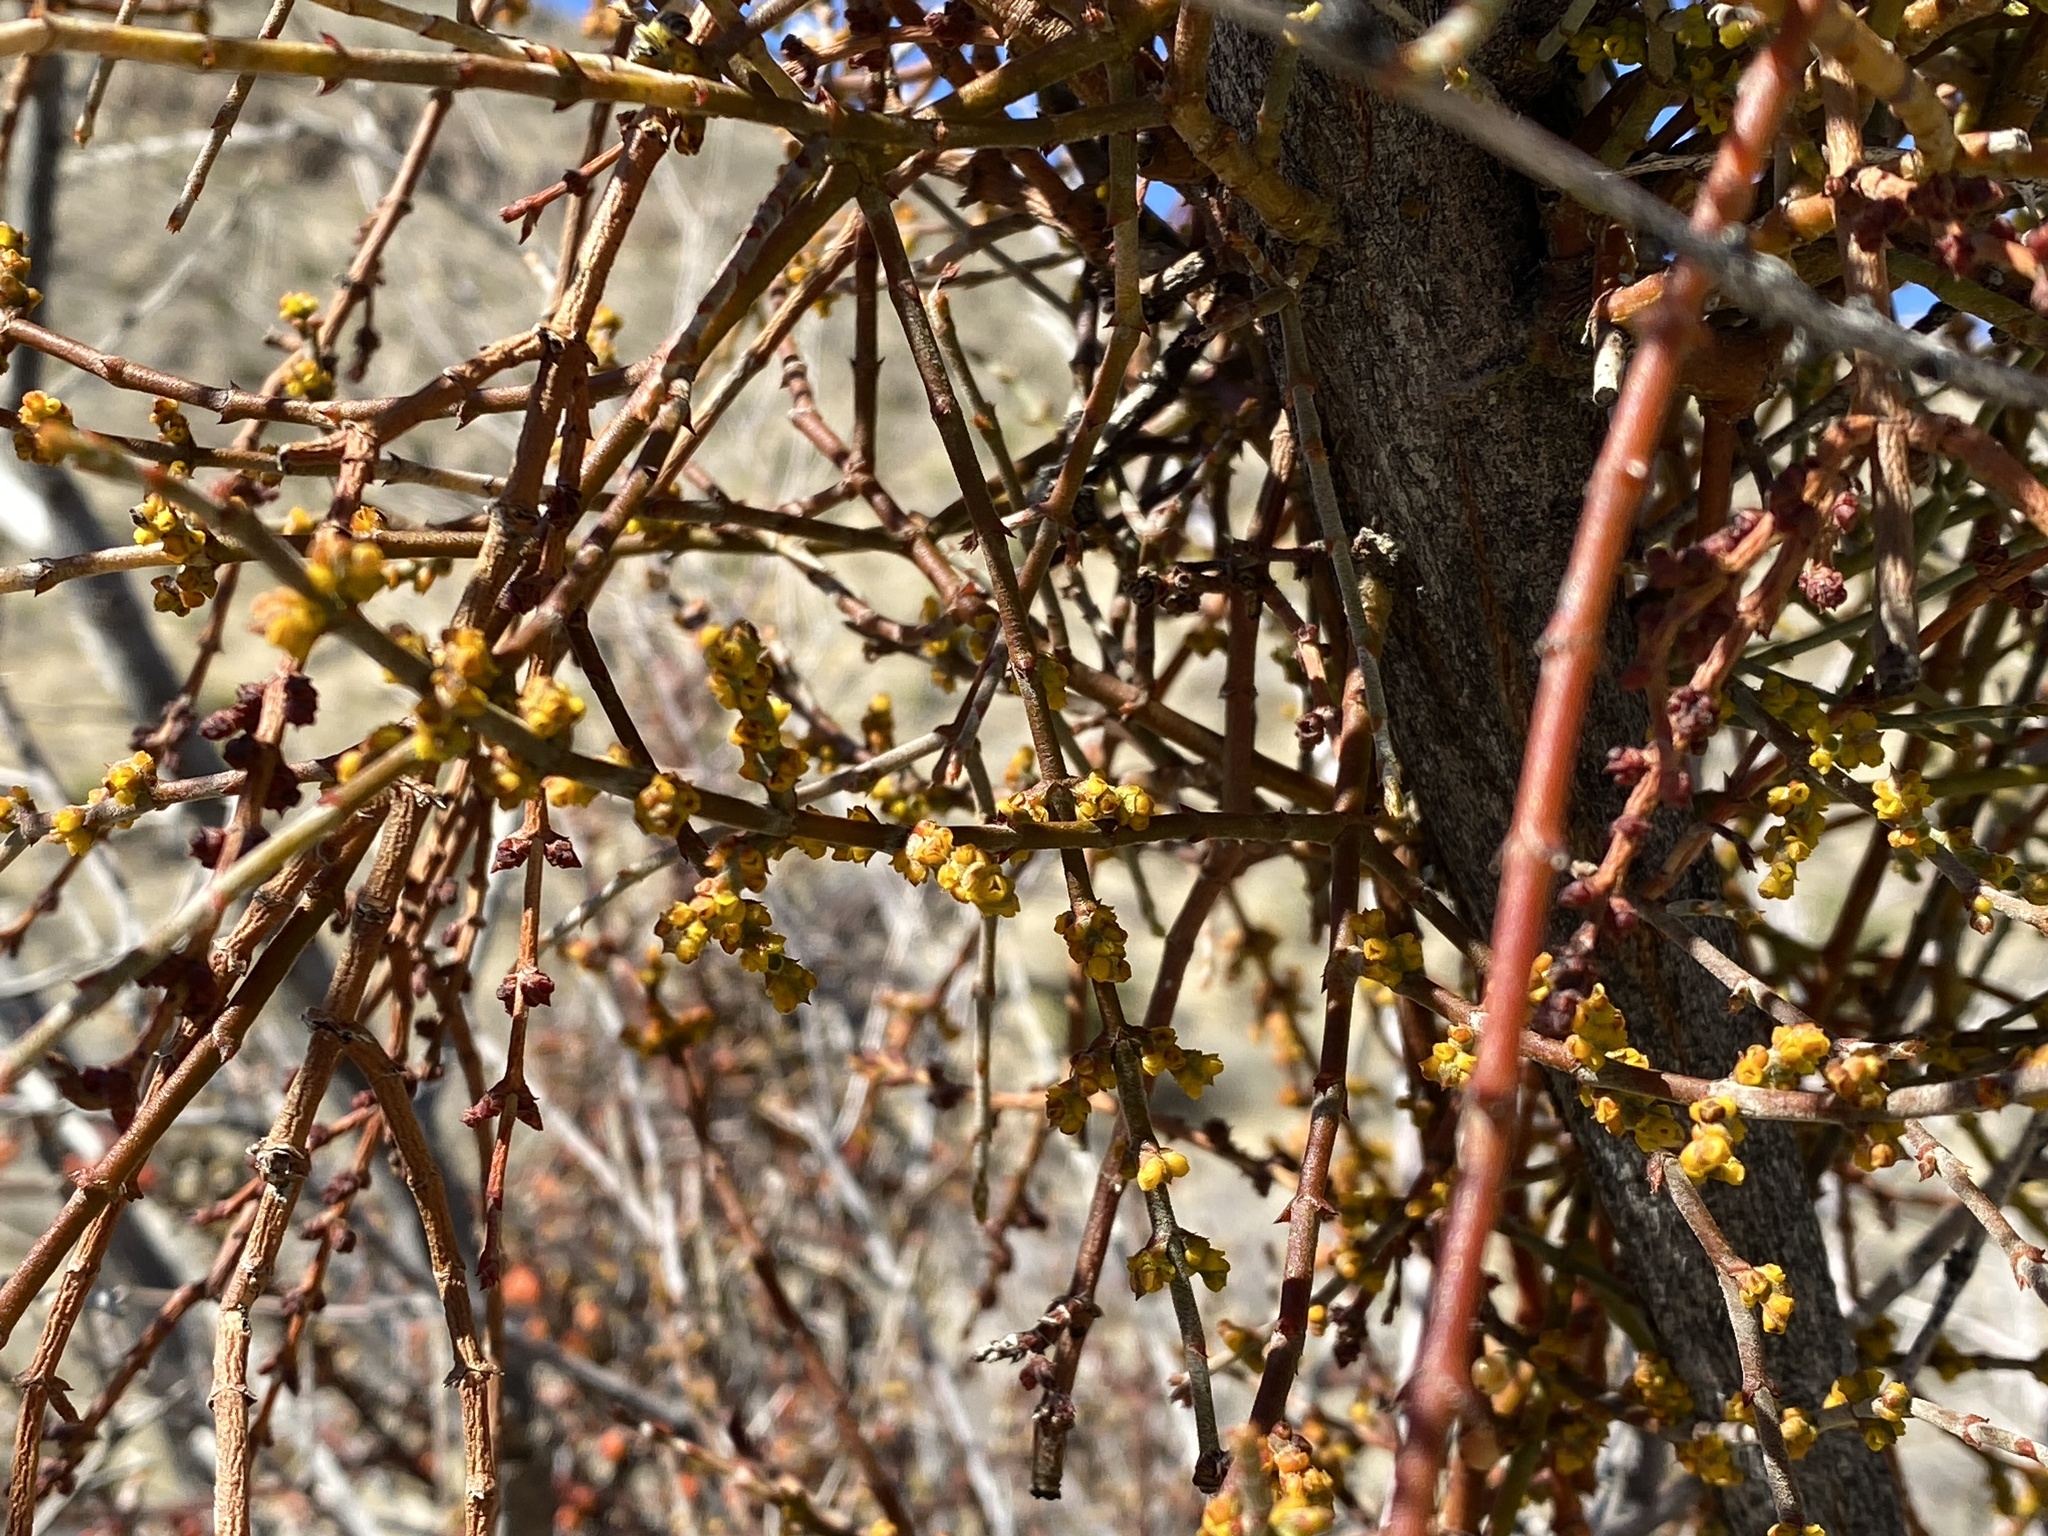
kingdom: Plantae
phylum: Tracheophyta
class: Magnoliopsida
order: Santalales
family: Viscaceae
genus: Phoradendron
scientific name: Phoradendron californicum
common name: Acacia mistletoe
